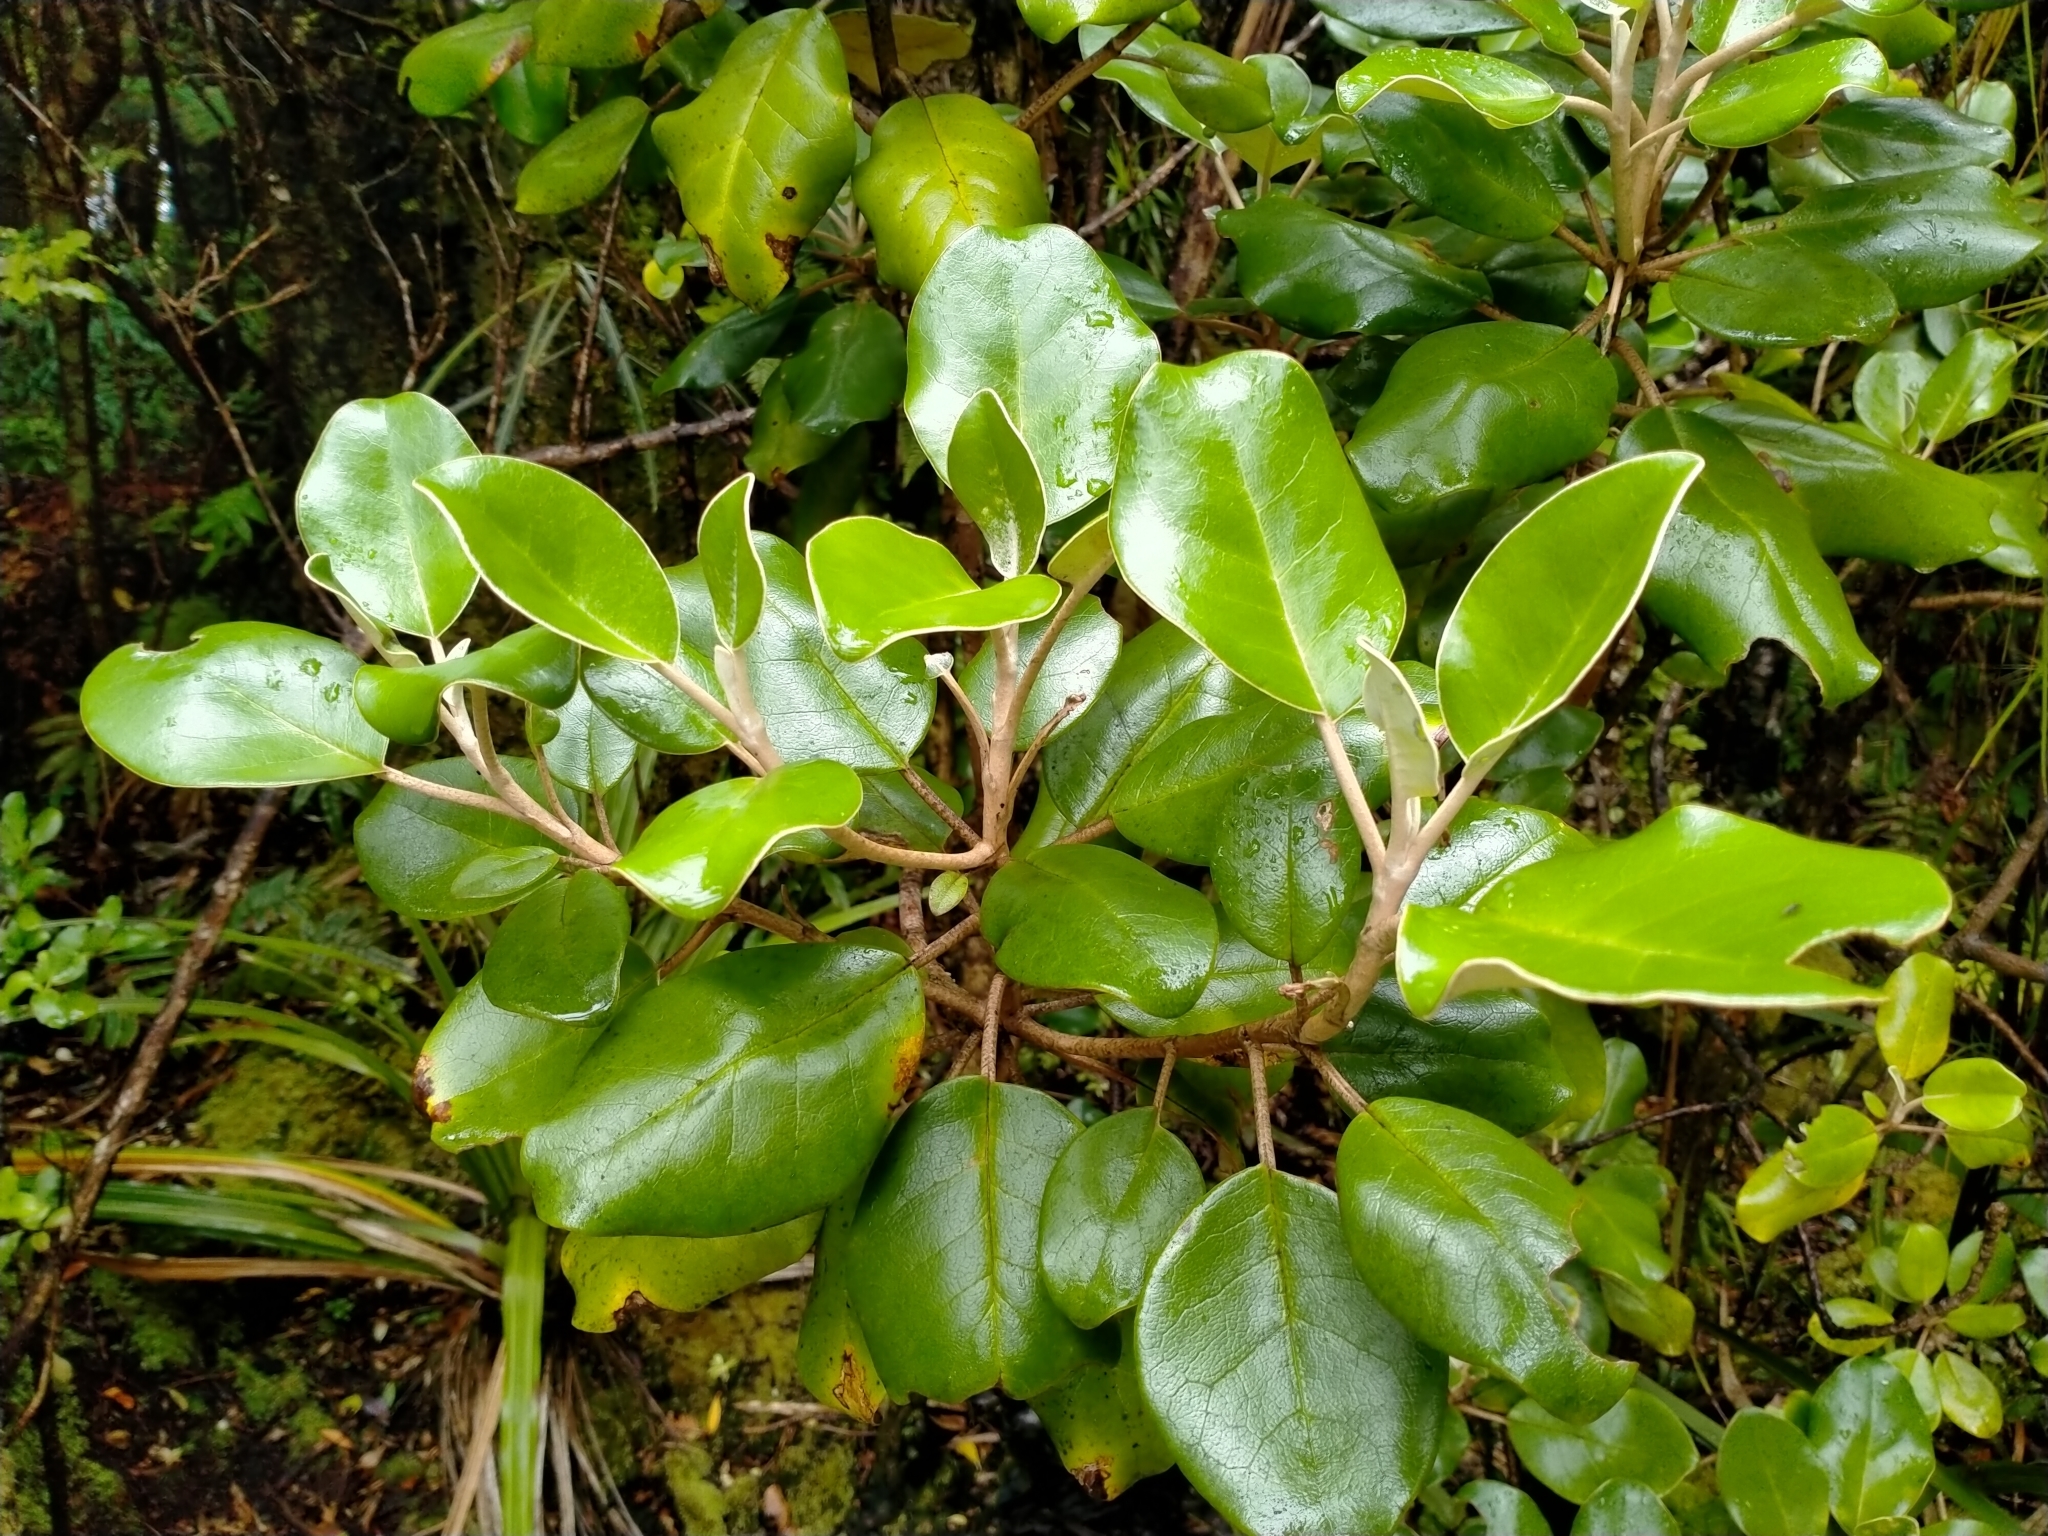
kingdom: Plantae
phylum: Tracheophyta
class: Magnoliopsida
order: Asterales
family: Asteraceae
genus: Brachyglottis
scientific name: Brachyglottis rotundifolia
